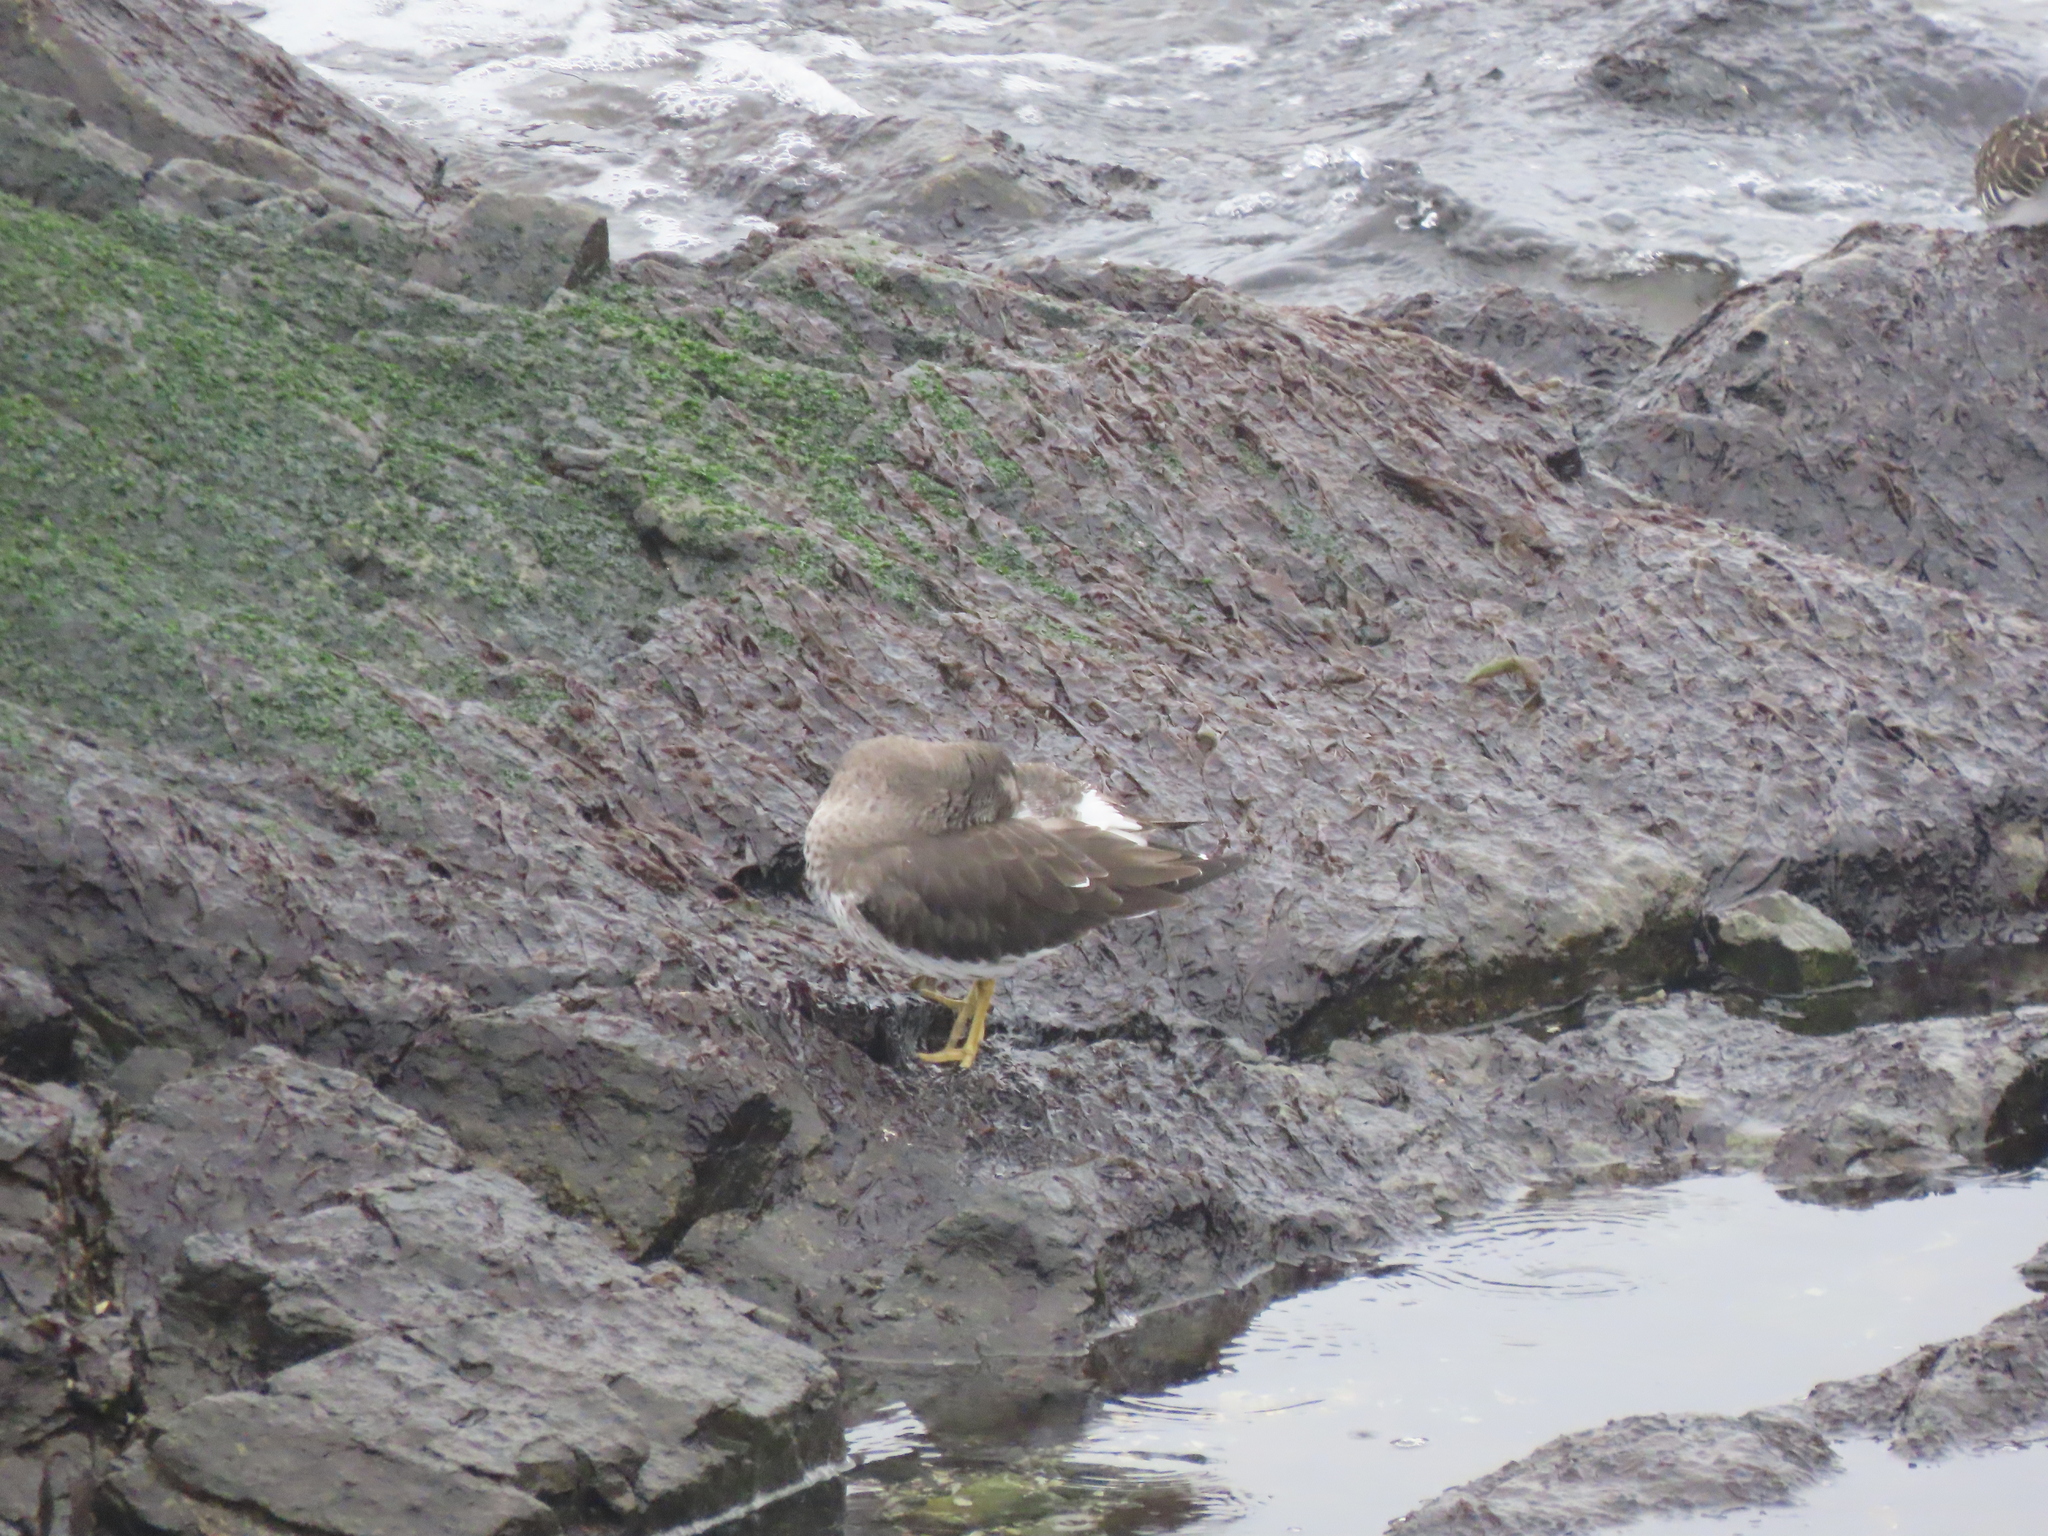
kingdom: Animalia
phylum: Chordata
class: Aves
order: Charadriiformes
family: Scolopacidae
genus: Calidris
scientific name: Calidris virgata
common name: Surfbird
